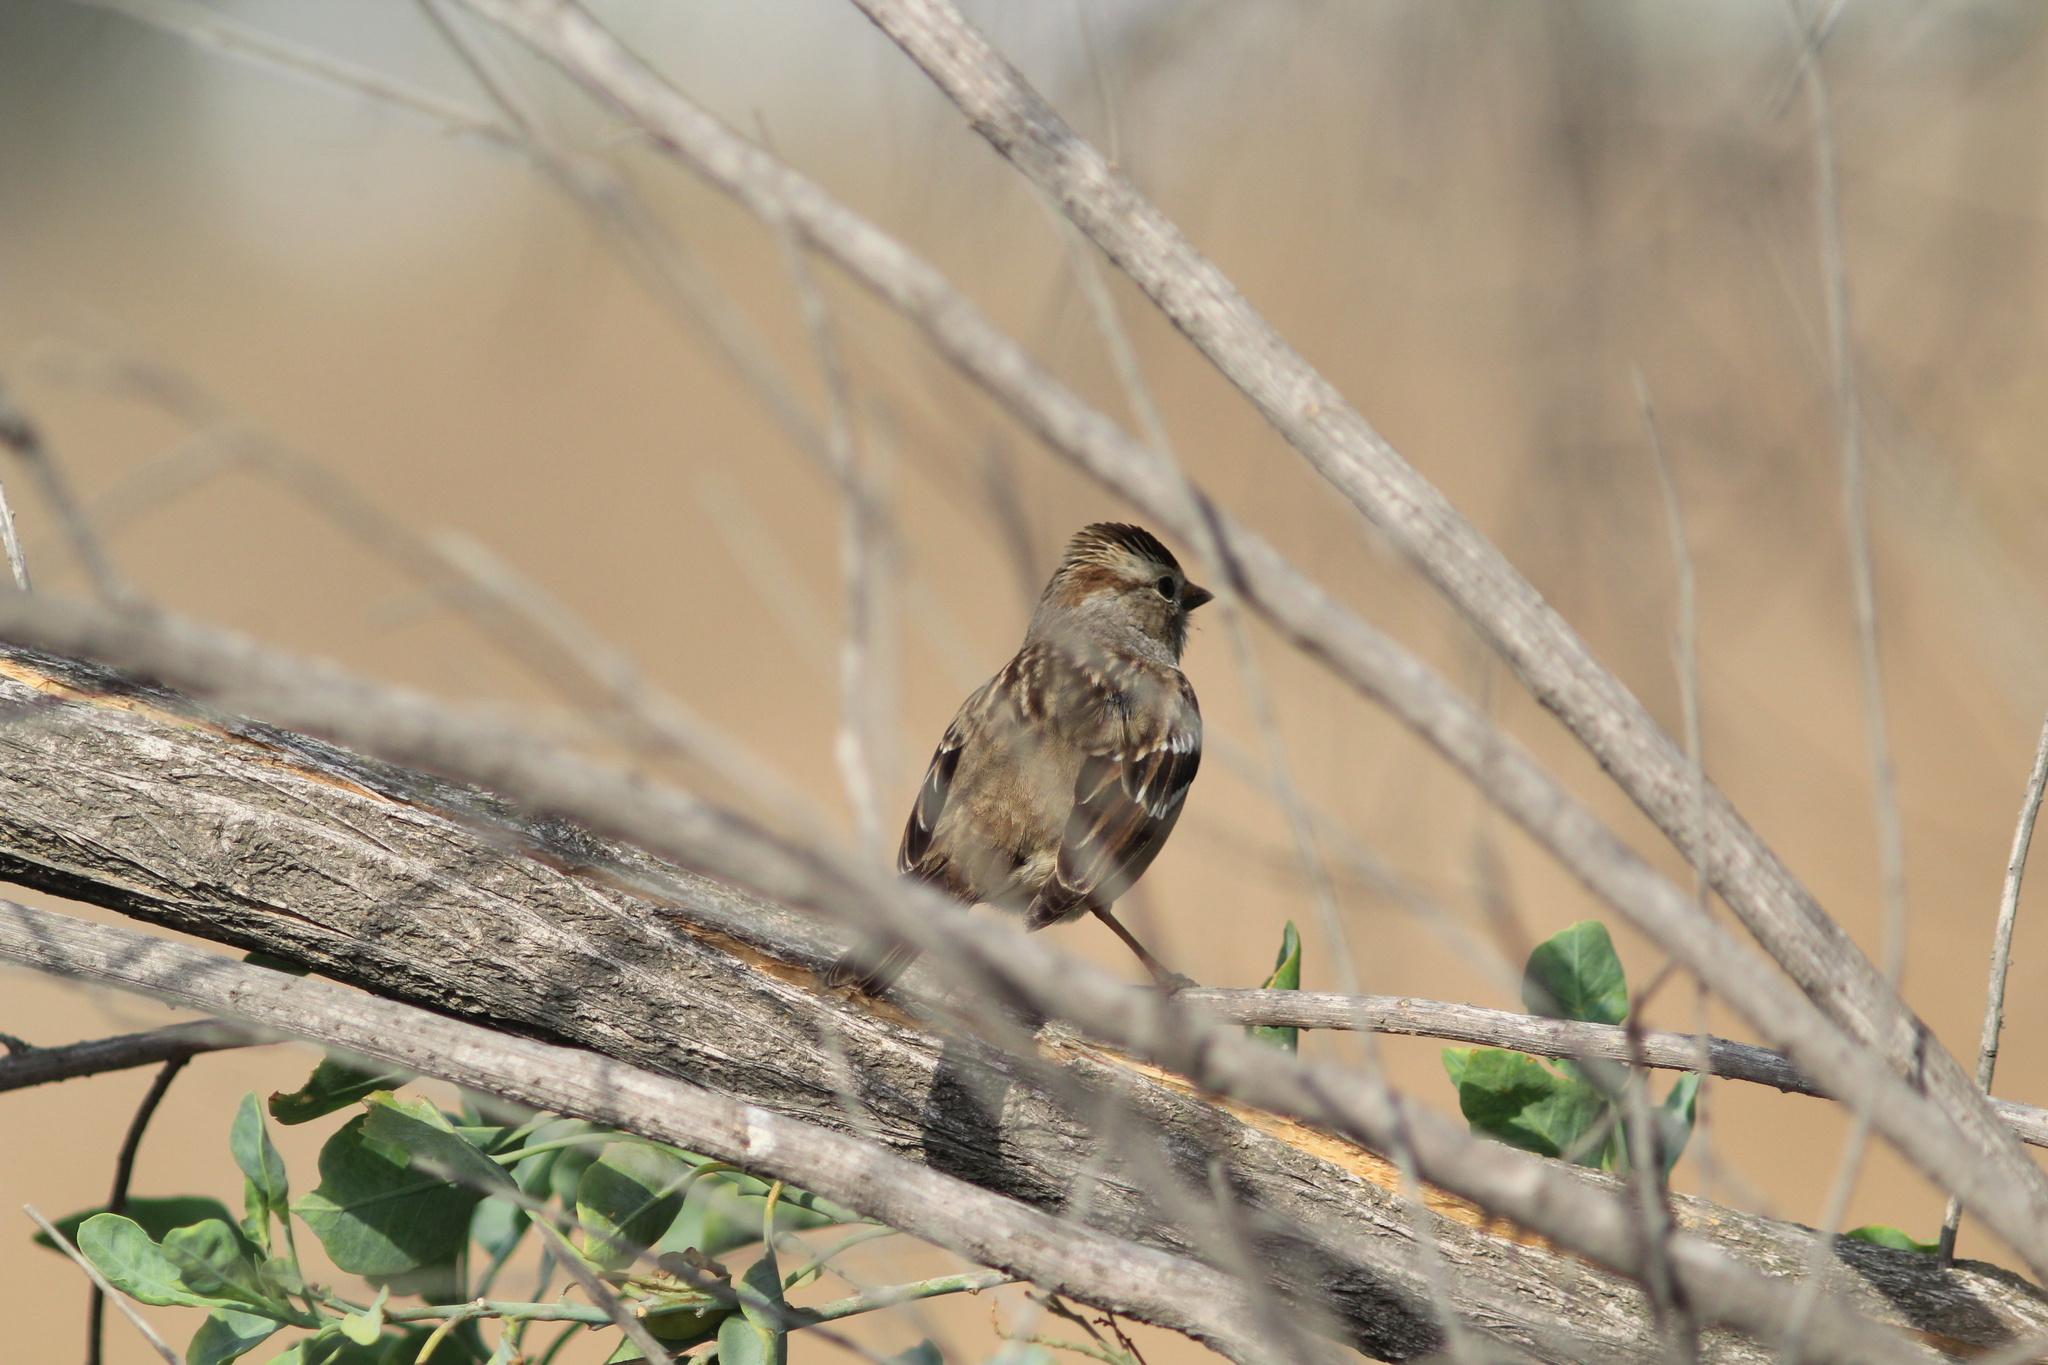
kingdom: Animalia
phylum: Chordata
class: Aves
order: Passeriformes
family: Passerellidae
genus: Zonotrichia
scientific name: Zonotrichia leucophrys
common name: White-crowned sparrow
